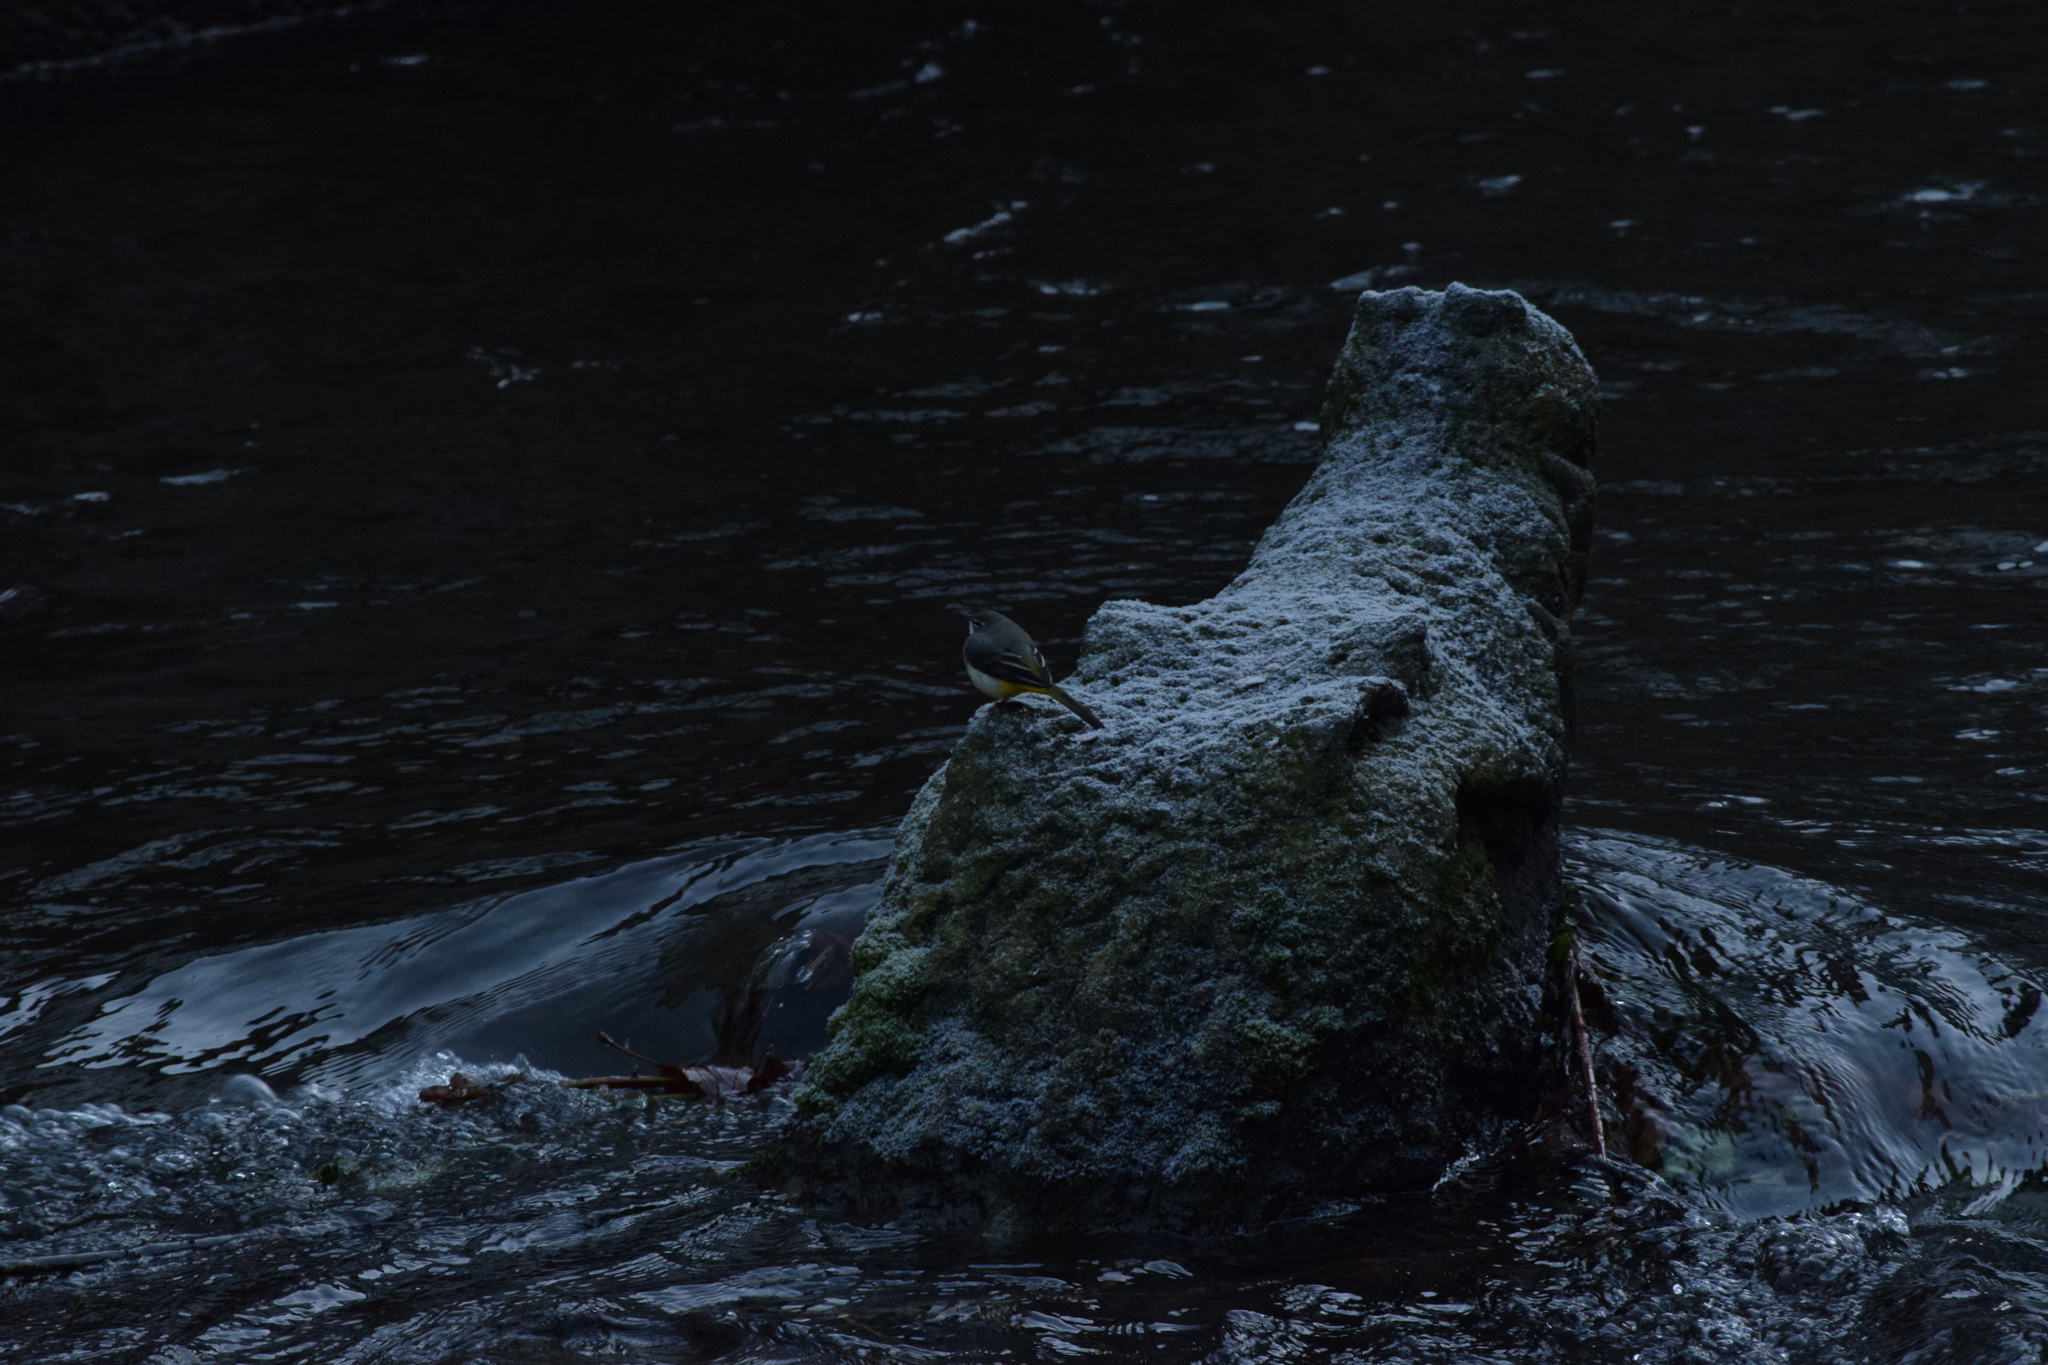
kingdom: Animalia
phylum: Chordata
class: Aves
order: Passeriformes
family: Motacillidae
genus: Motacilla
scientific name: Motacilla cinerea
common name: Grey wagtail
